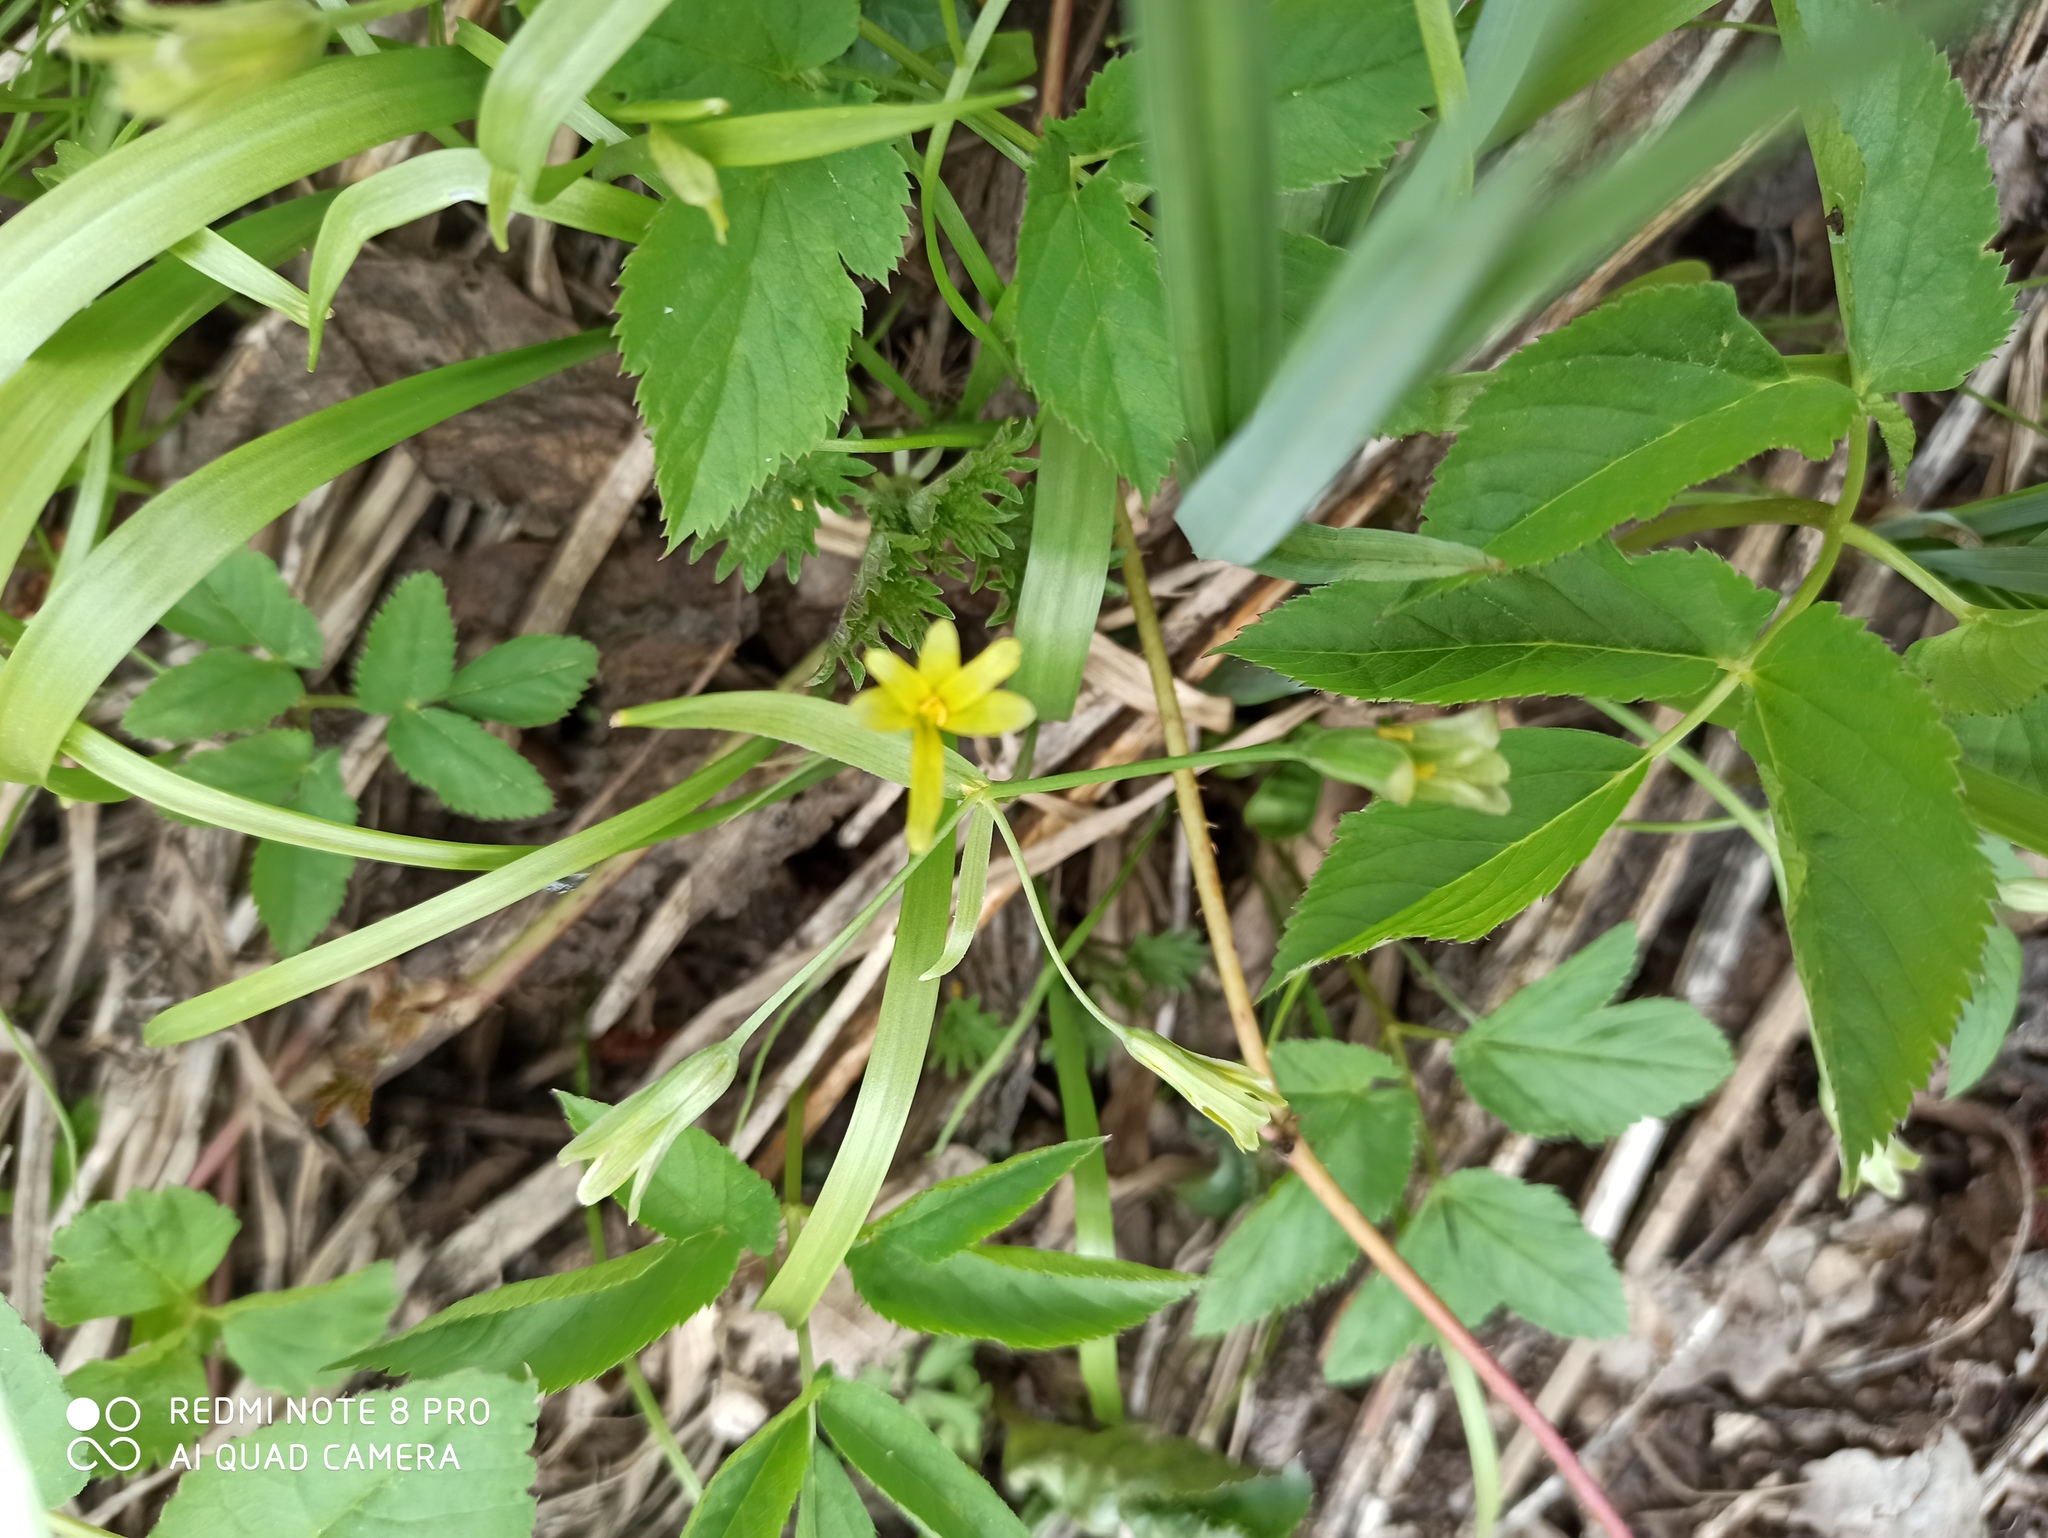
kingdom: Plantae
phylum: Tracheophyta
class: Liliopsida
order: Liliales
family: Liliaceae
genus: Gagea
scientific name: Gagea lutea
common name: Yellow star-of-bethlehem
